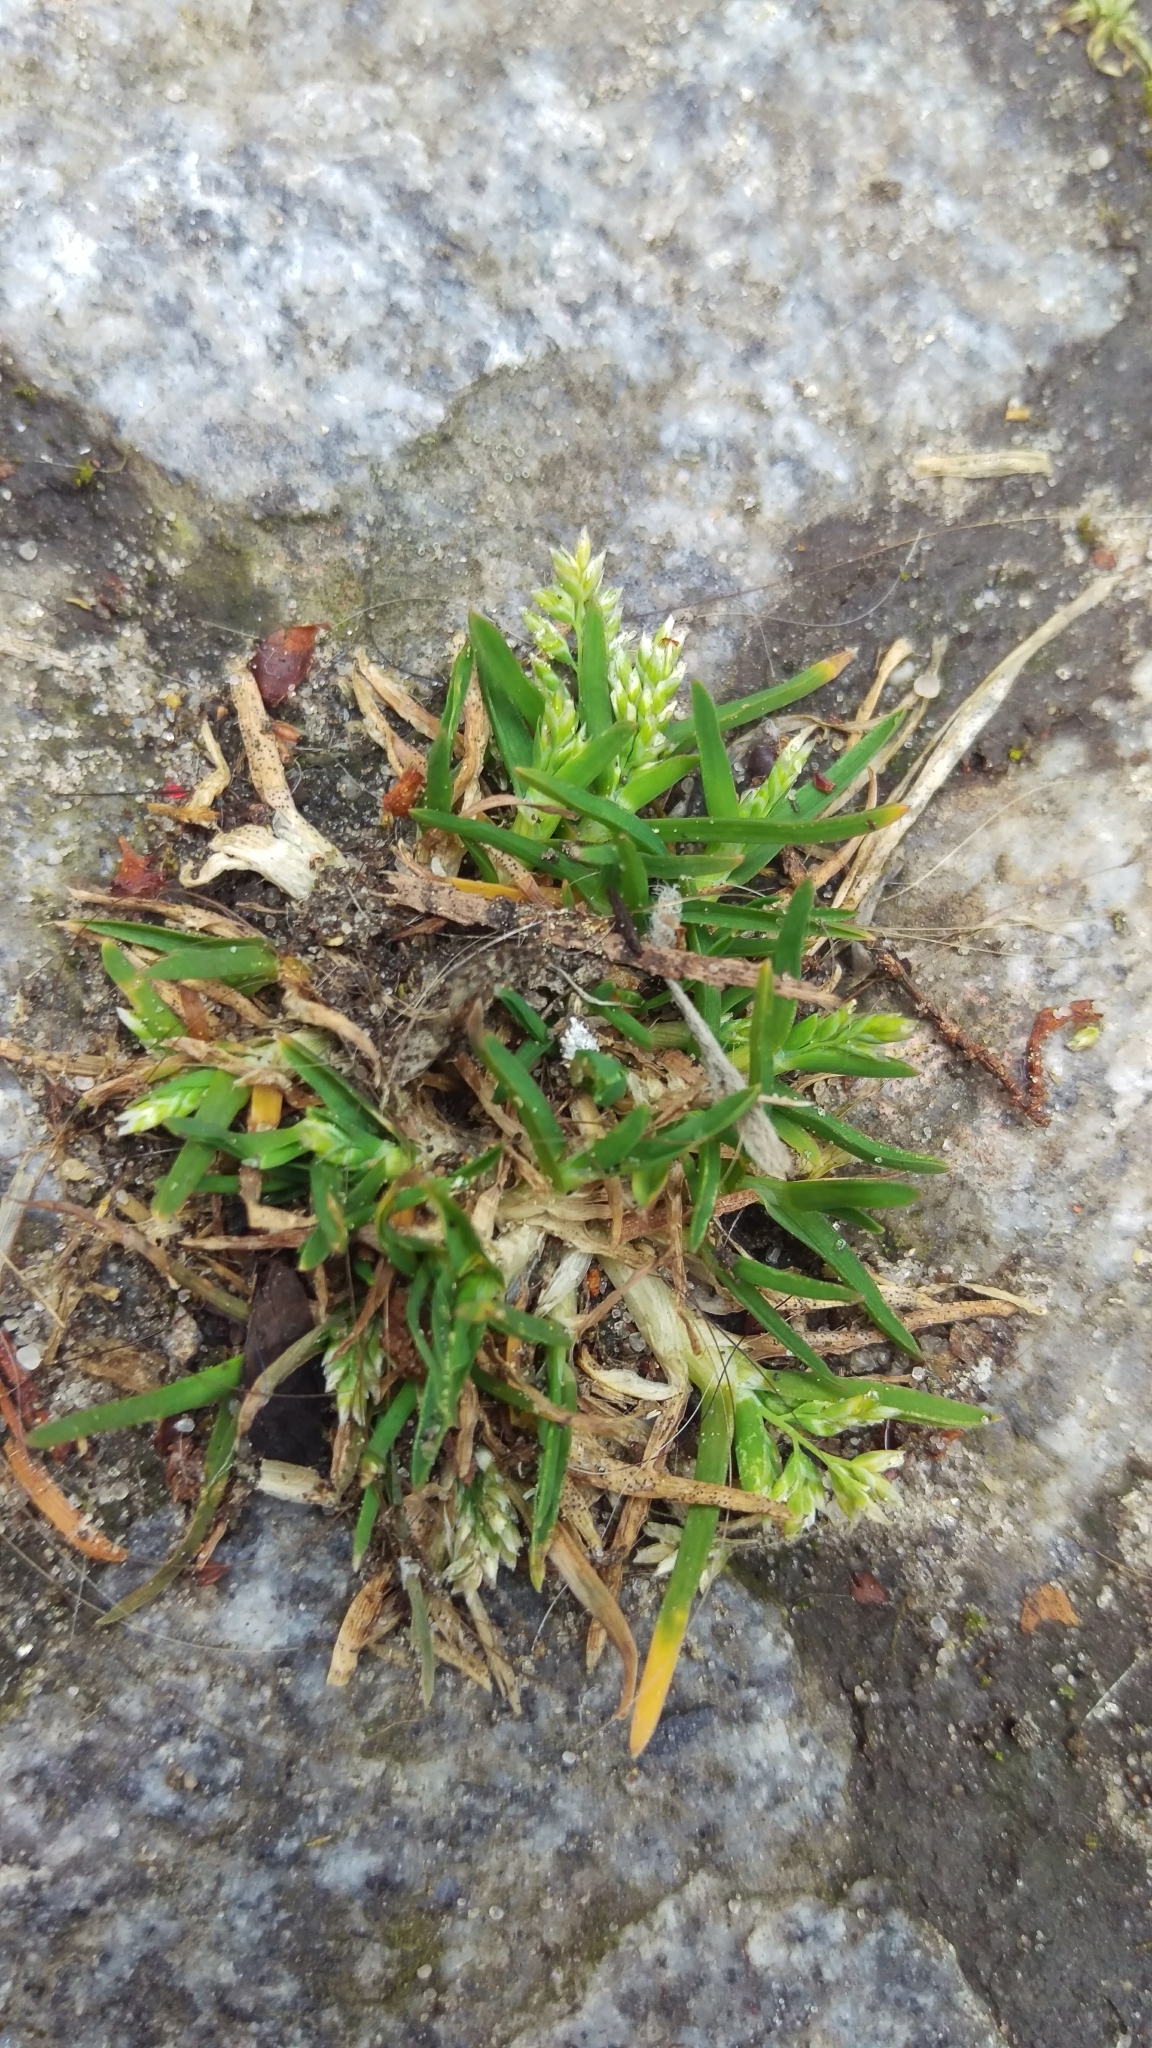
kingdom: Plantae
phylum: Tracheophyta
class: Liliopsida
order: Poales
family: Poaceae
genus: Poa
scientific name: Poa annua
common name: Annual bluegrass
